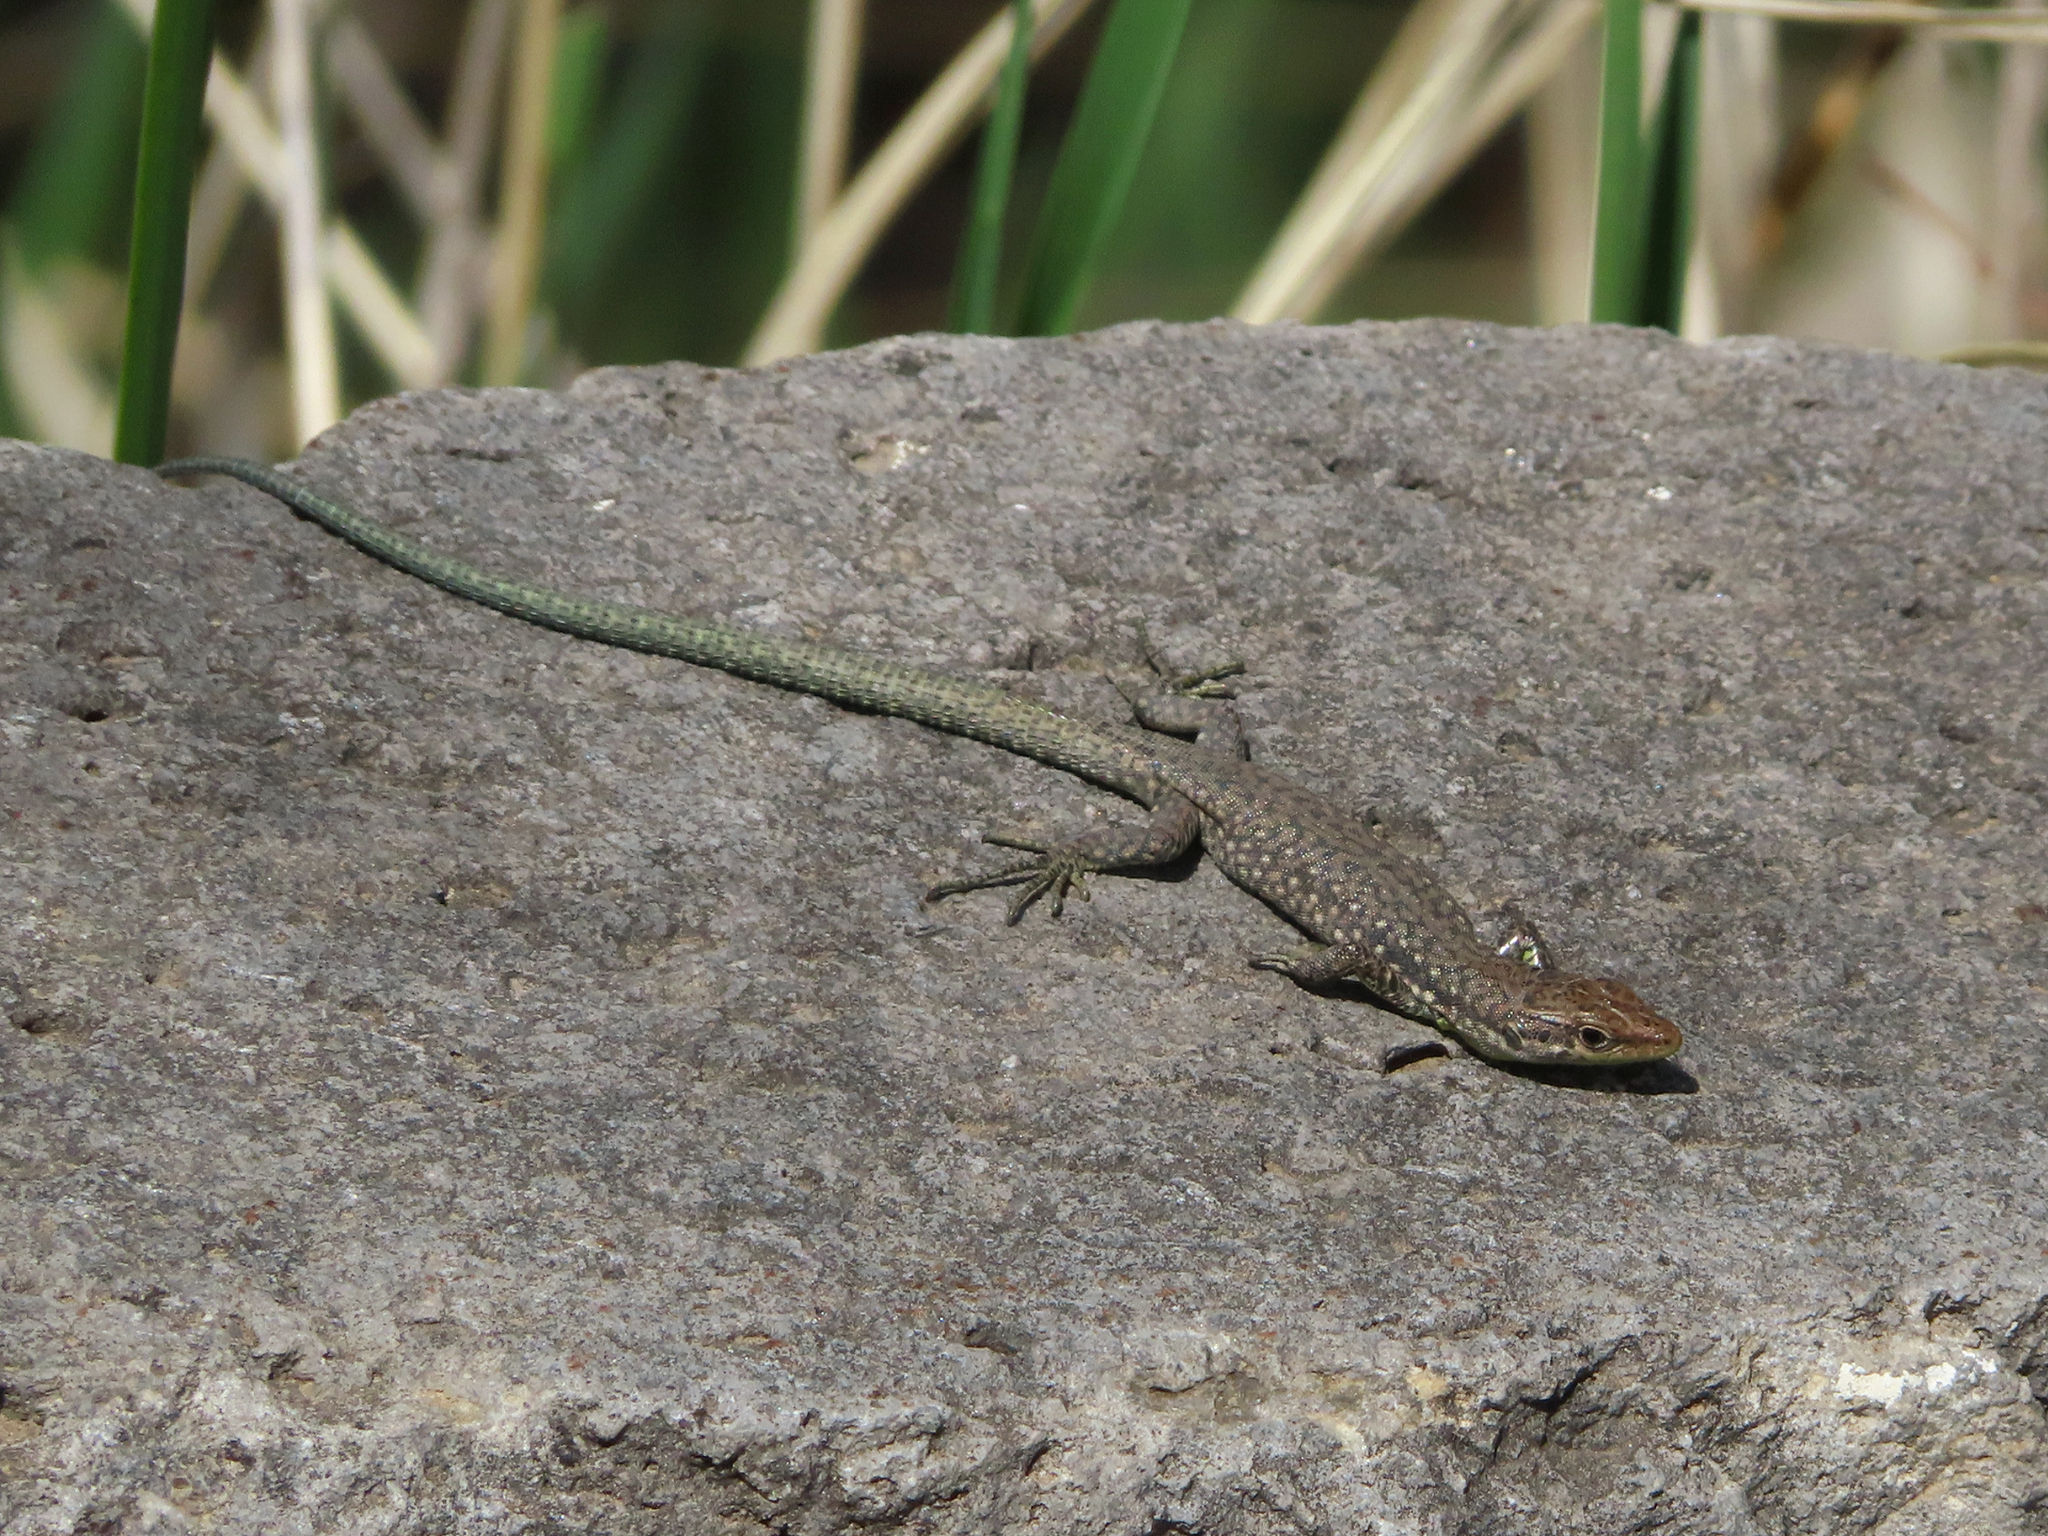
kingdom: Animalia
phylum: Chordata
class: Squamata
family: Lacertidae
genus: Darevskia
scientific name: Darevskia
